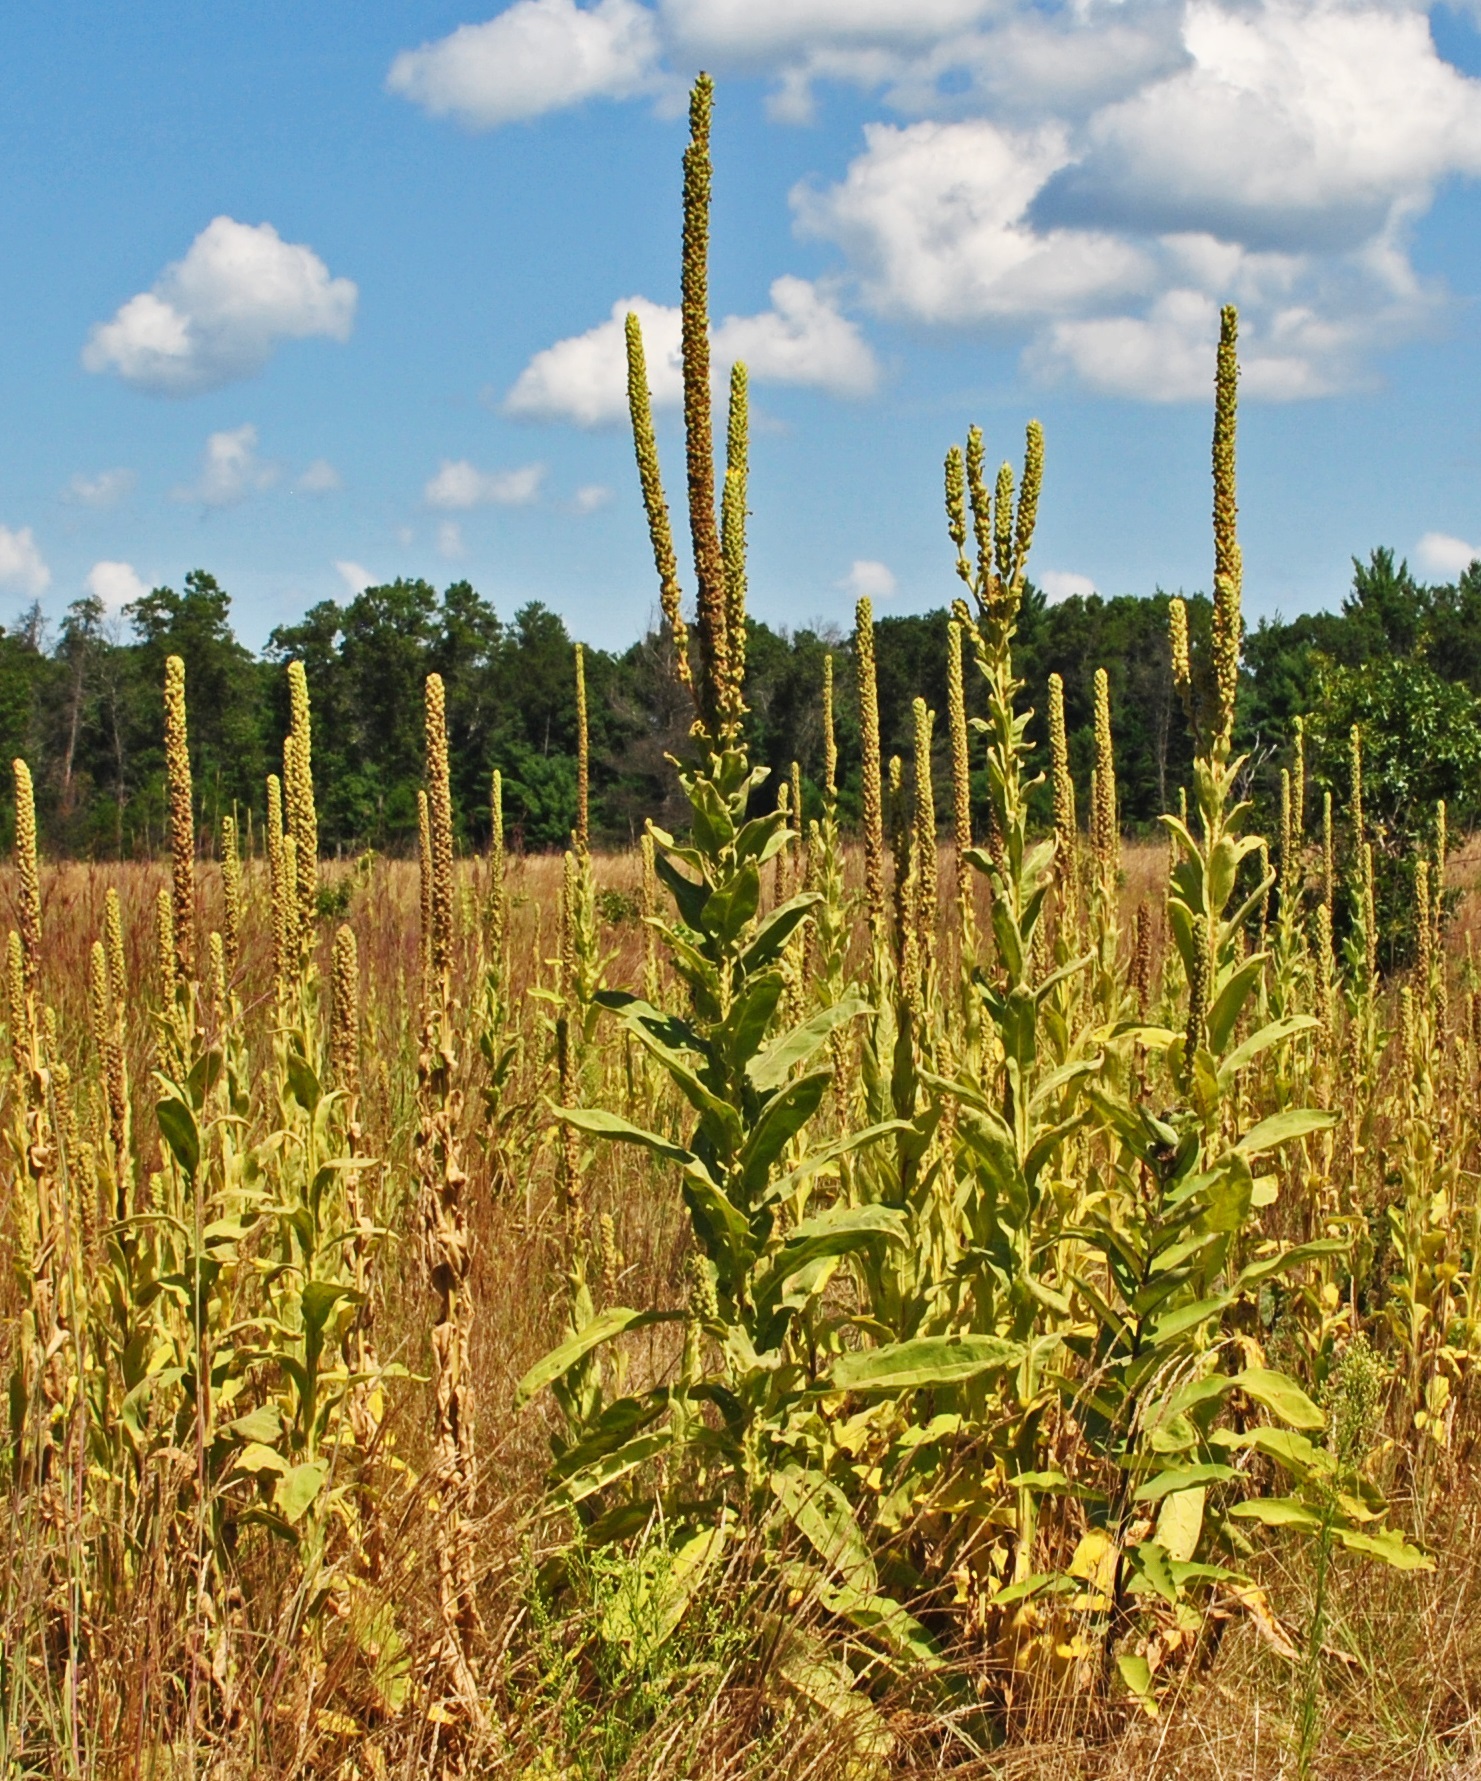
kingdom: Plantae
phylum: Tracheophyta
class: Magnoliopsida
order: Lamiales
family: Scrophulariaceae
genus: Verbascum
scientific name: Verbascum thapsus
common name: Common mullein
